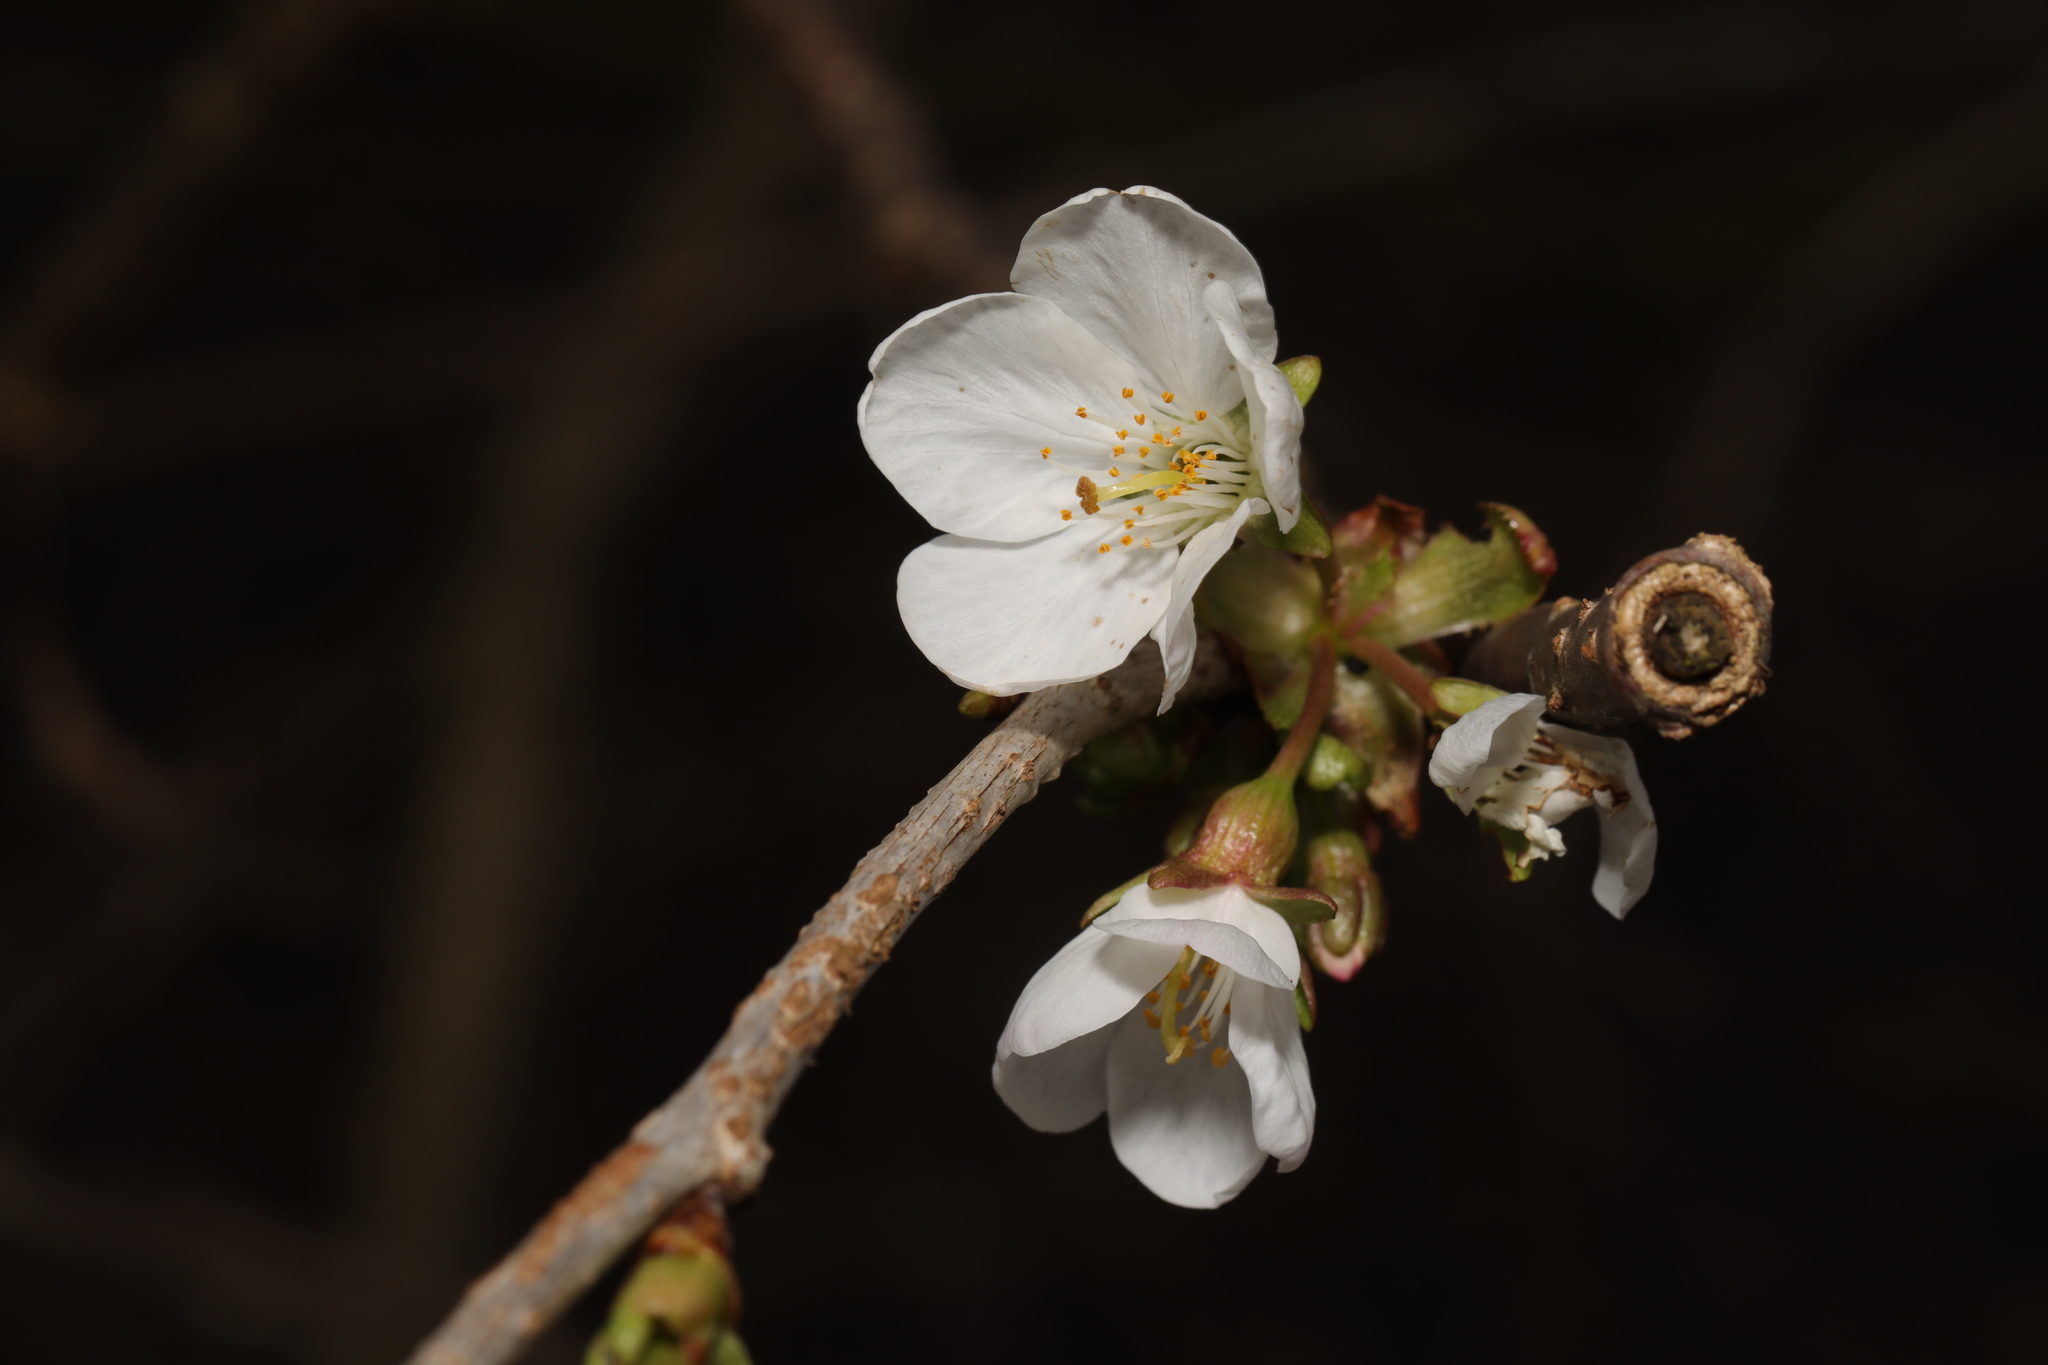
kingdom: Plantae
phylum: Tracheophyta
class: Magnoliopsida
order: Rosales
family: Rosaceae
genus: Prunus
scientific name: Prunus avium
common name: Sweet cherry
